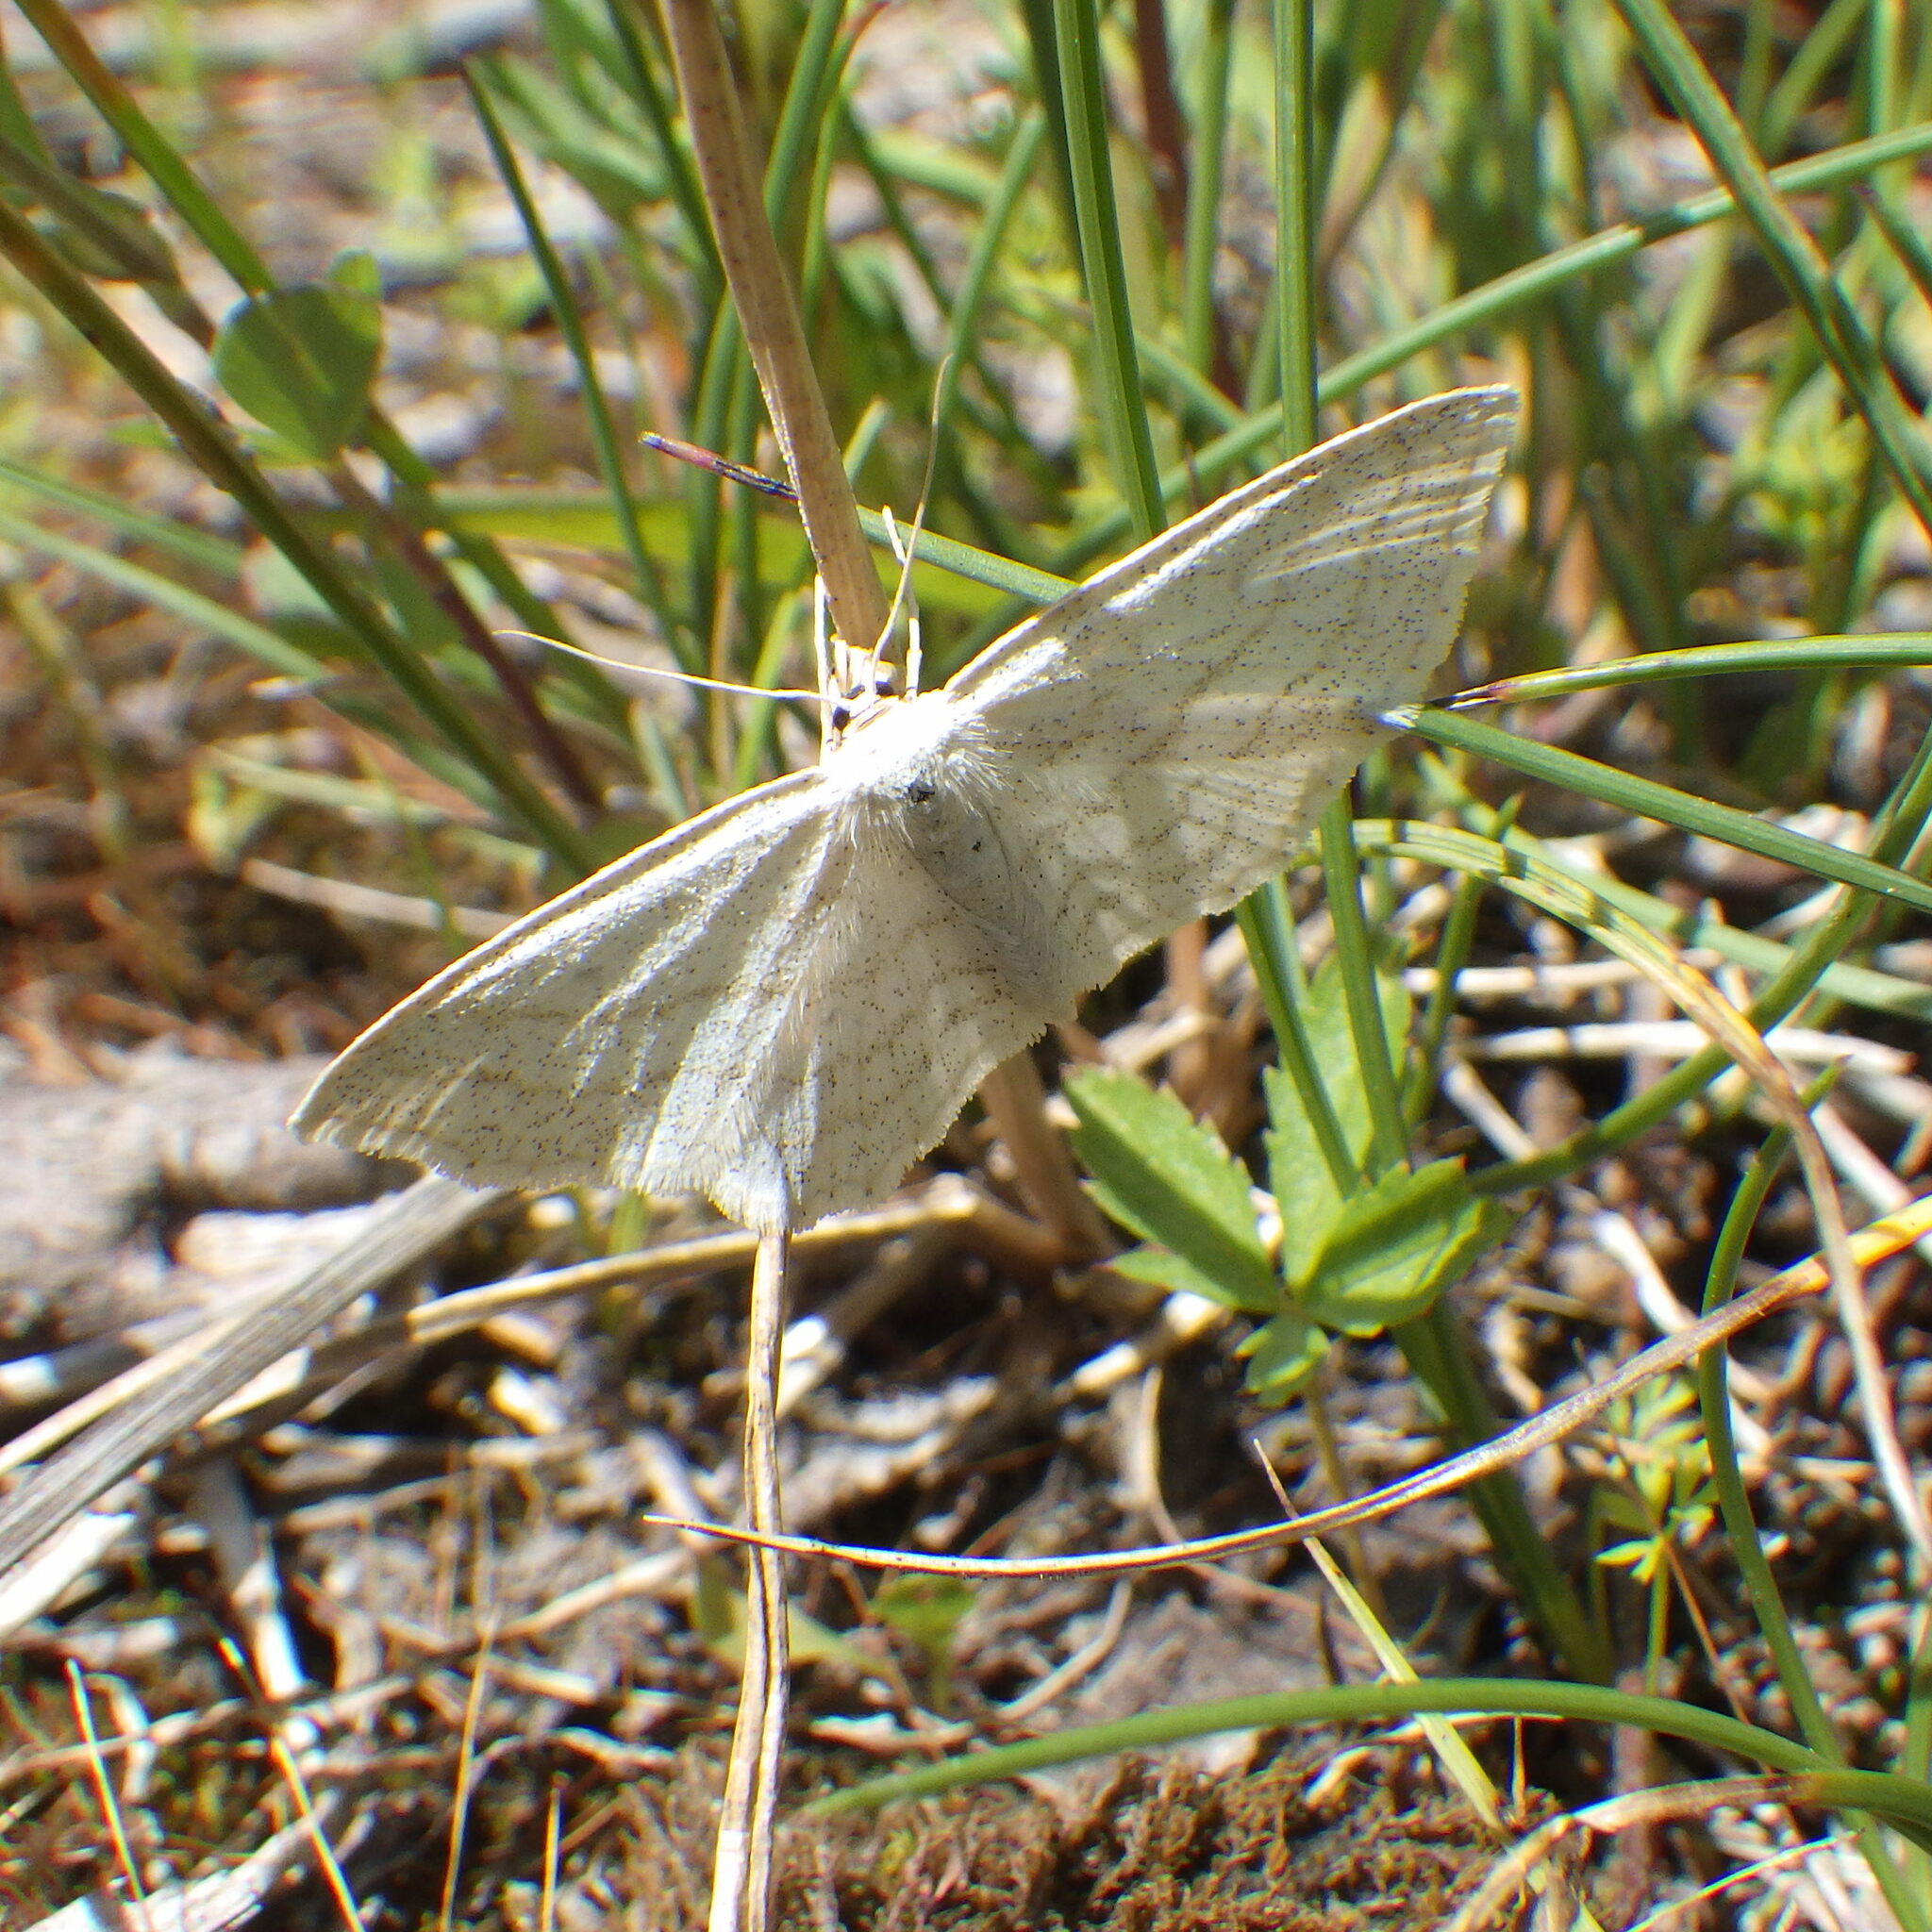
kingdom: Animalia
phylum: Arthropoda
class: Insecta
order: Lepidoptera
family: Geometridae
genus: Scopula
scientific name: Scopula junctaria
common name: Simple wave
